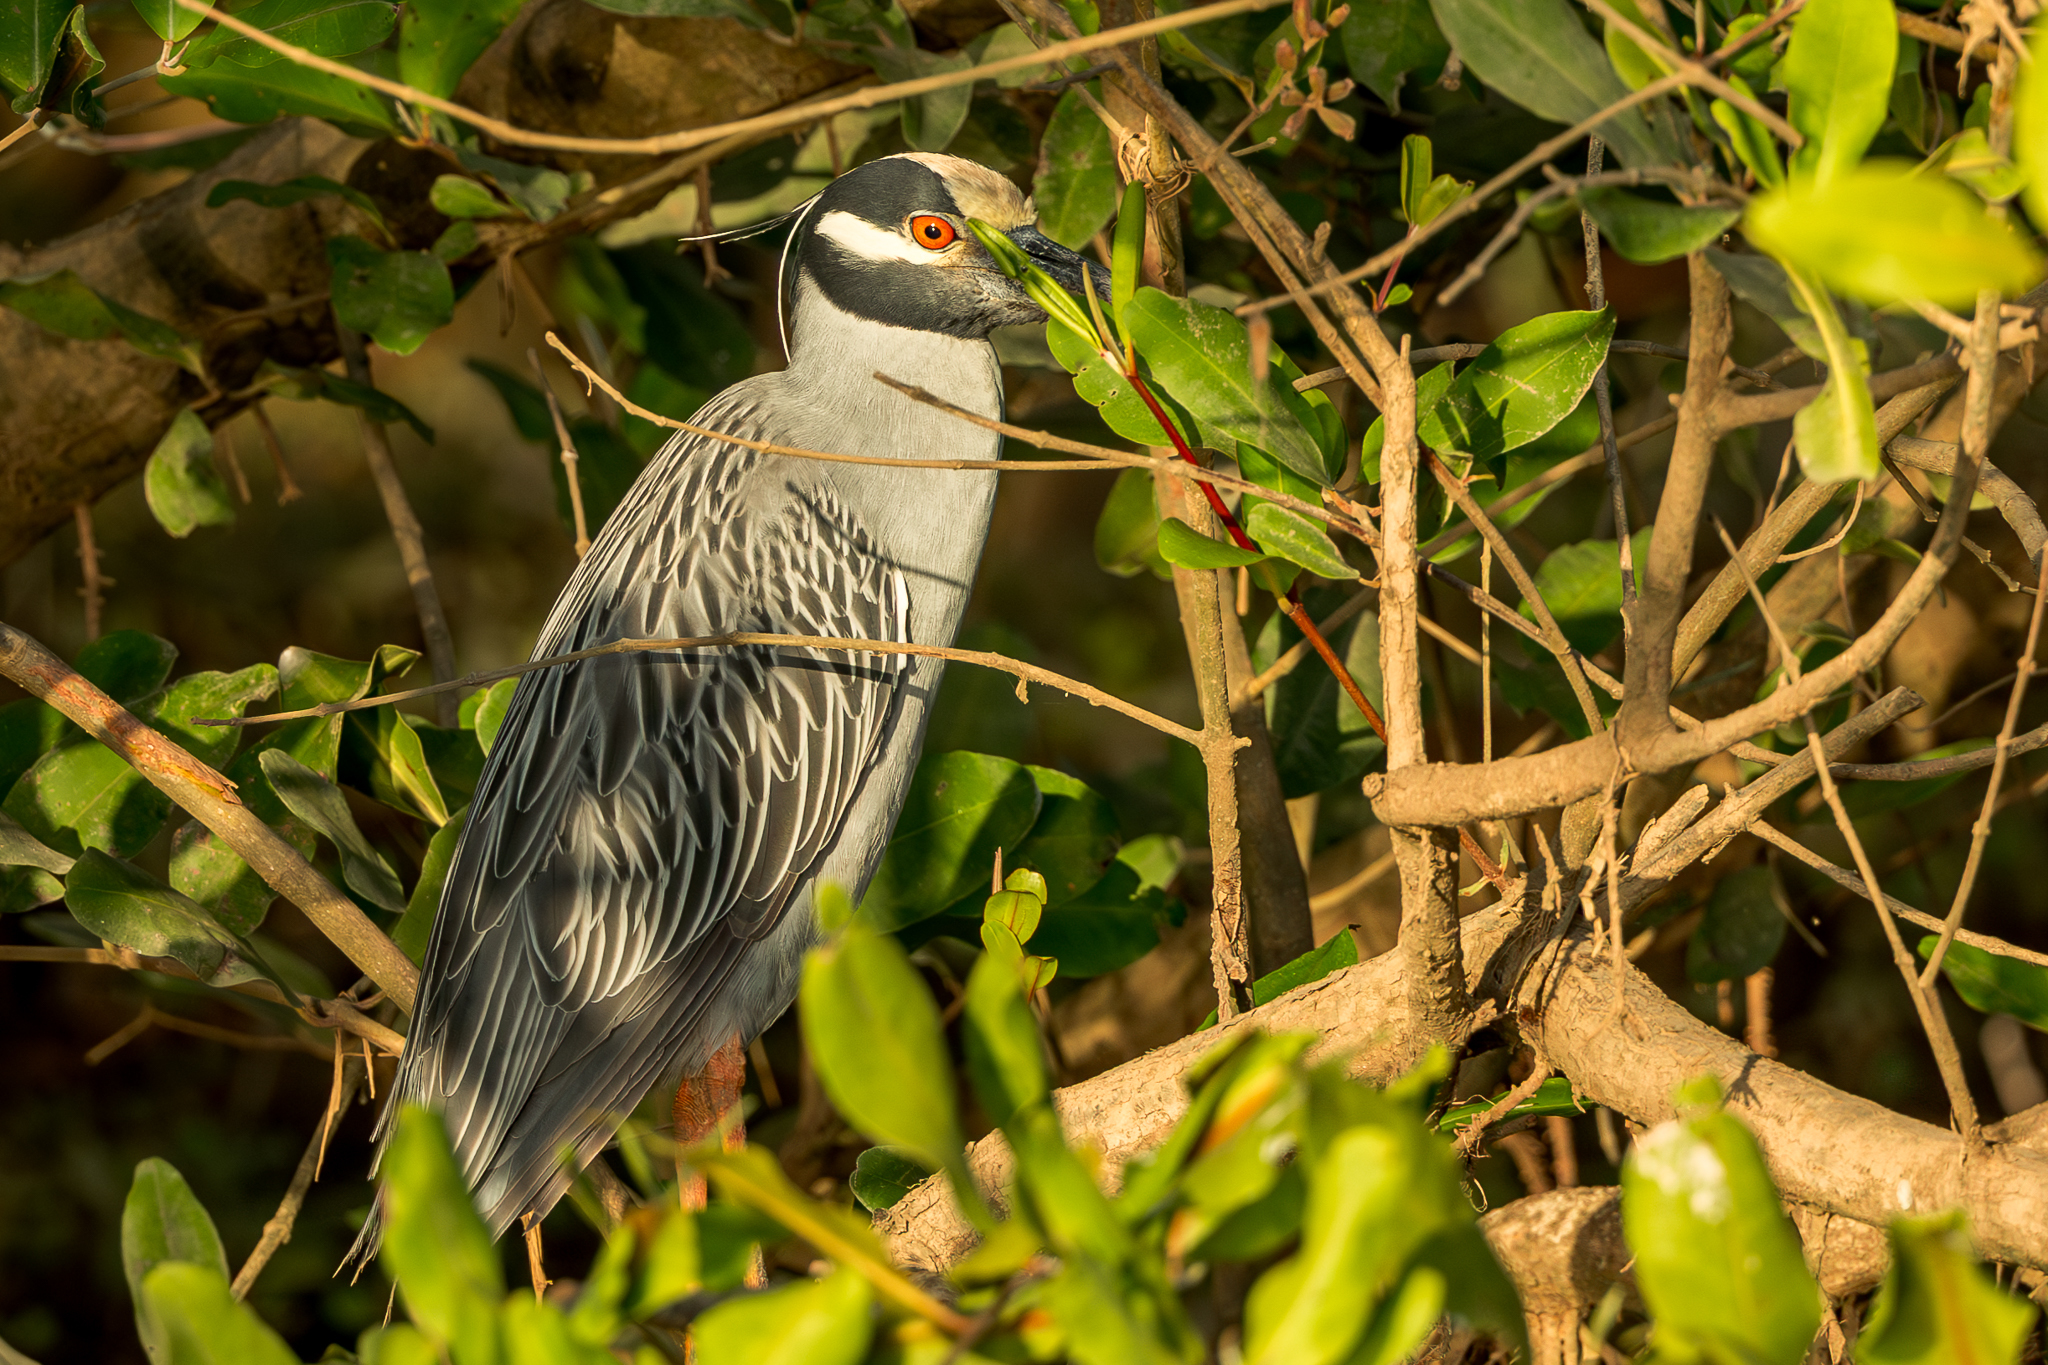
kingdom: Animalia
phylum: Chordata
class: Aves
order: Pelecaniformes
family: Ardeidae
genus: Nyctanassa
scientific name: Nyctanassa violacea
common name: Yellow-crowned night heron
